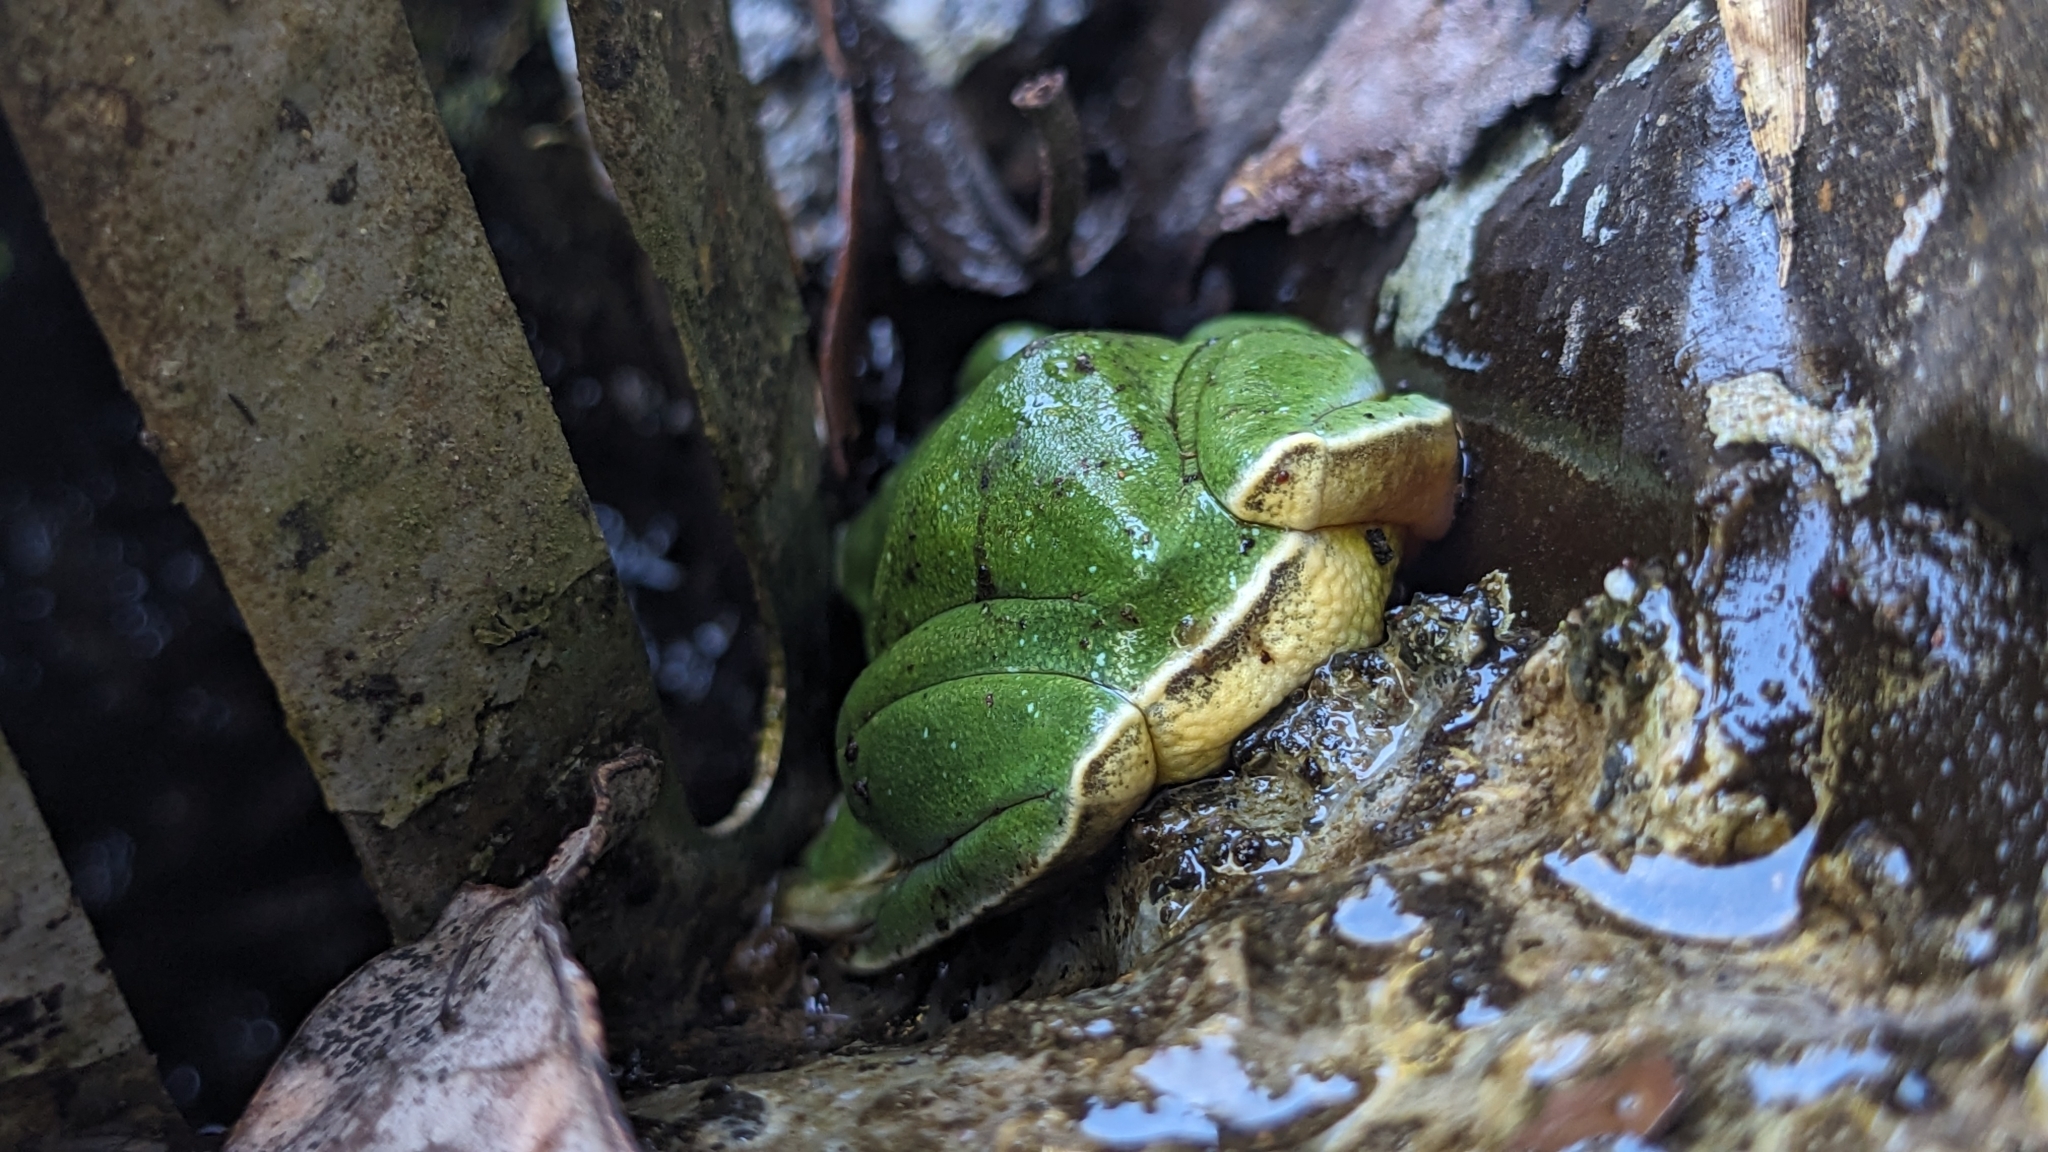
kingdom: Animalia
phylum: Chordata
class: Amphibia
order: Anura
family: Rhacophoridae
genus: Zhangixalus
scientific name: Zhangixalus taipeianus
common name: Taipei flying frog
